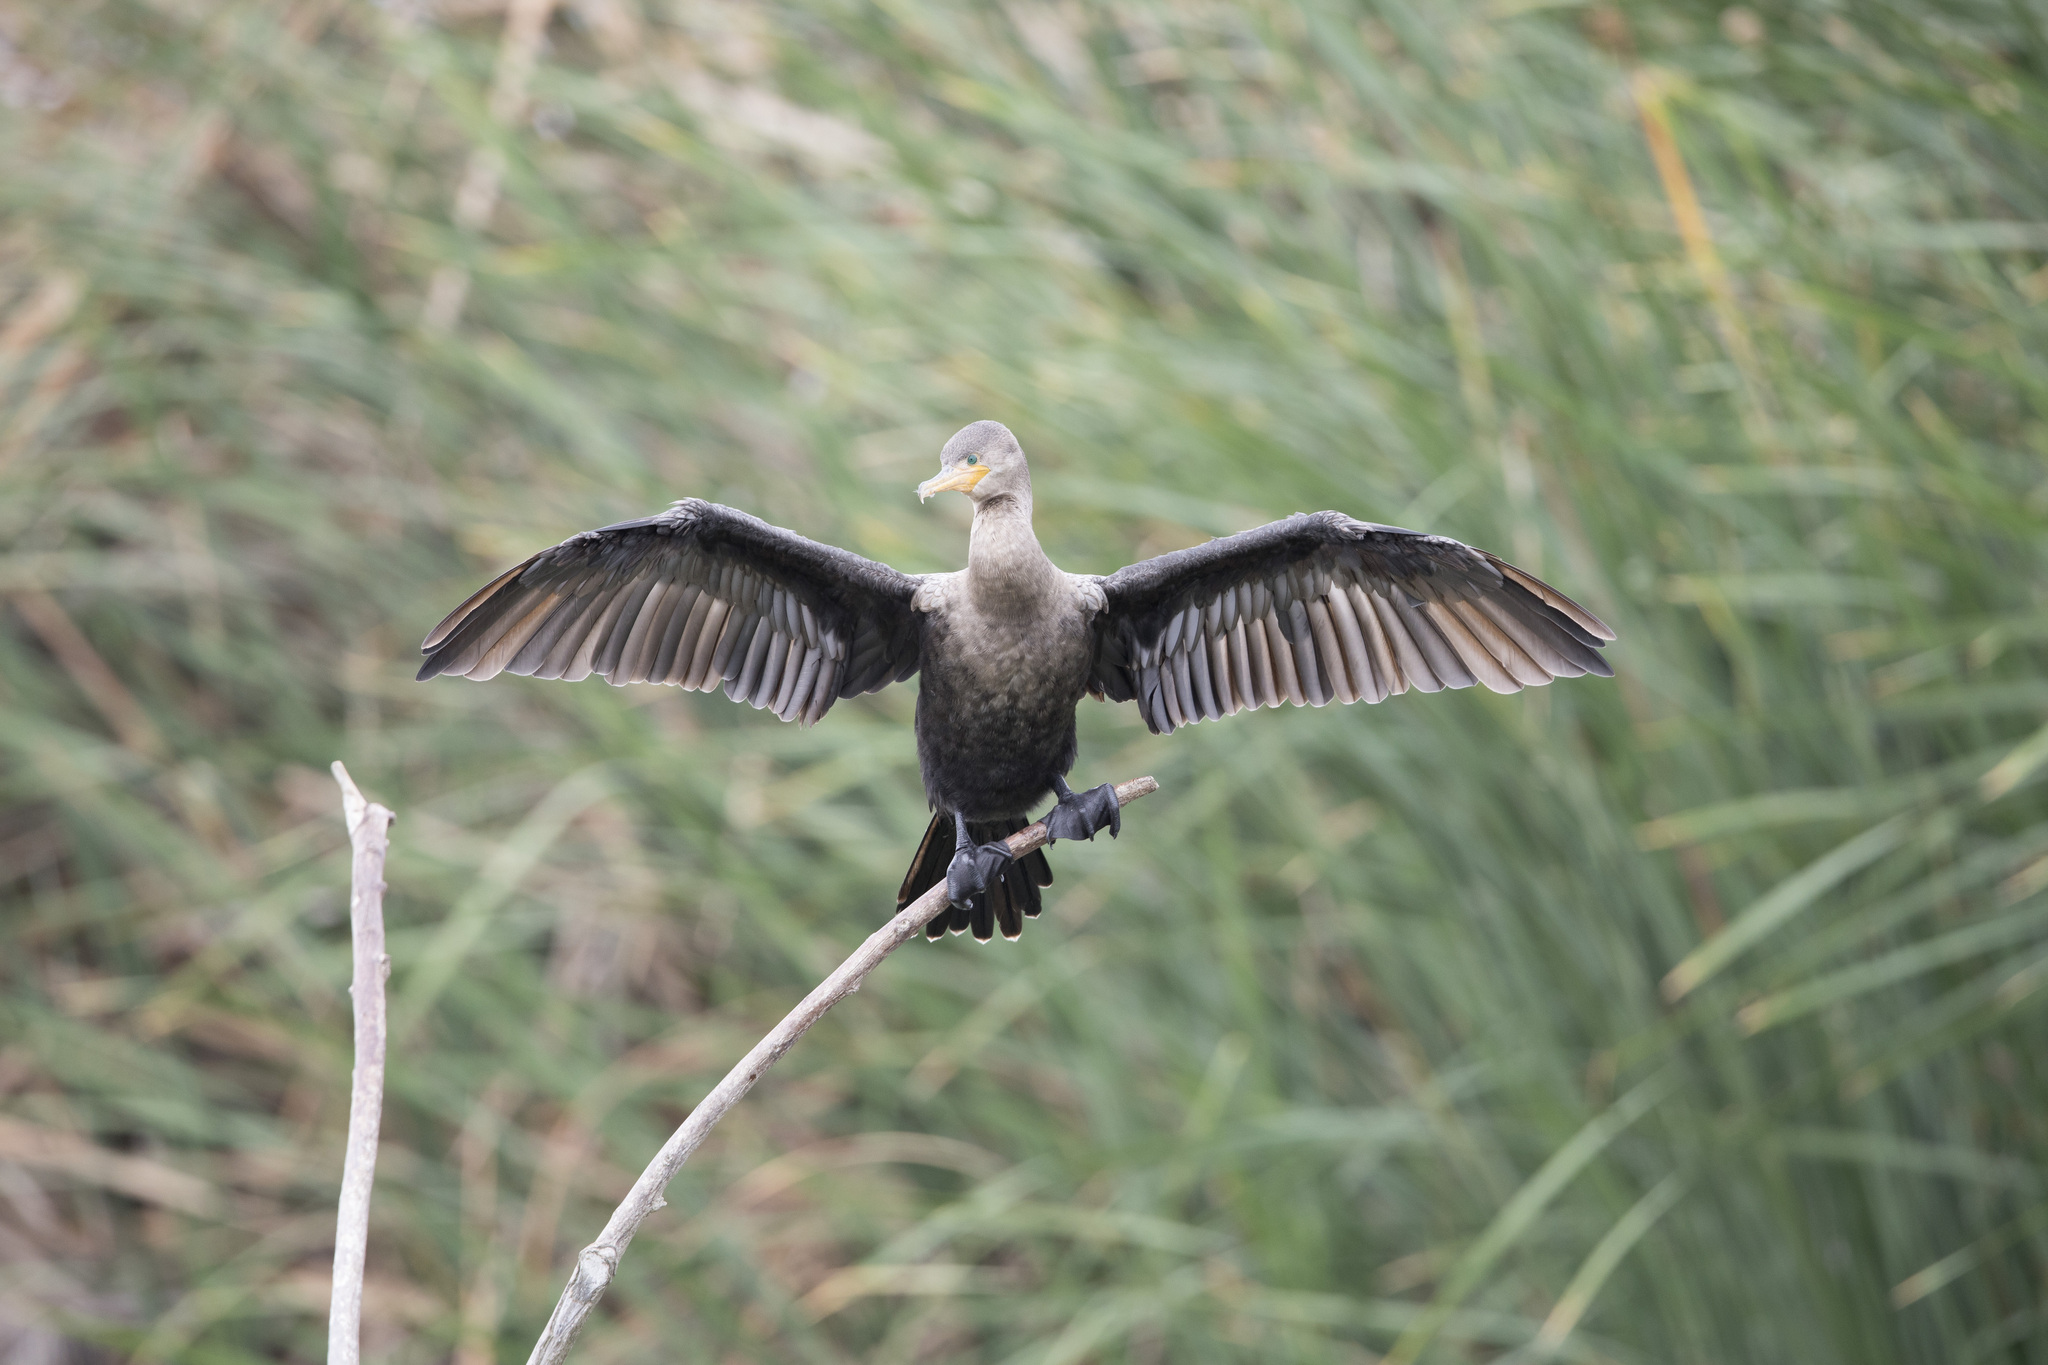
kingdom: Animalia
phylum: Chordata
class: Aves
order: Suliformes
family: Phalacrocoracidae
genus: Phalacrocorax
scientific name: Phalacrocorax brasilianus
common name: Neotropic cormorant
